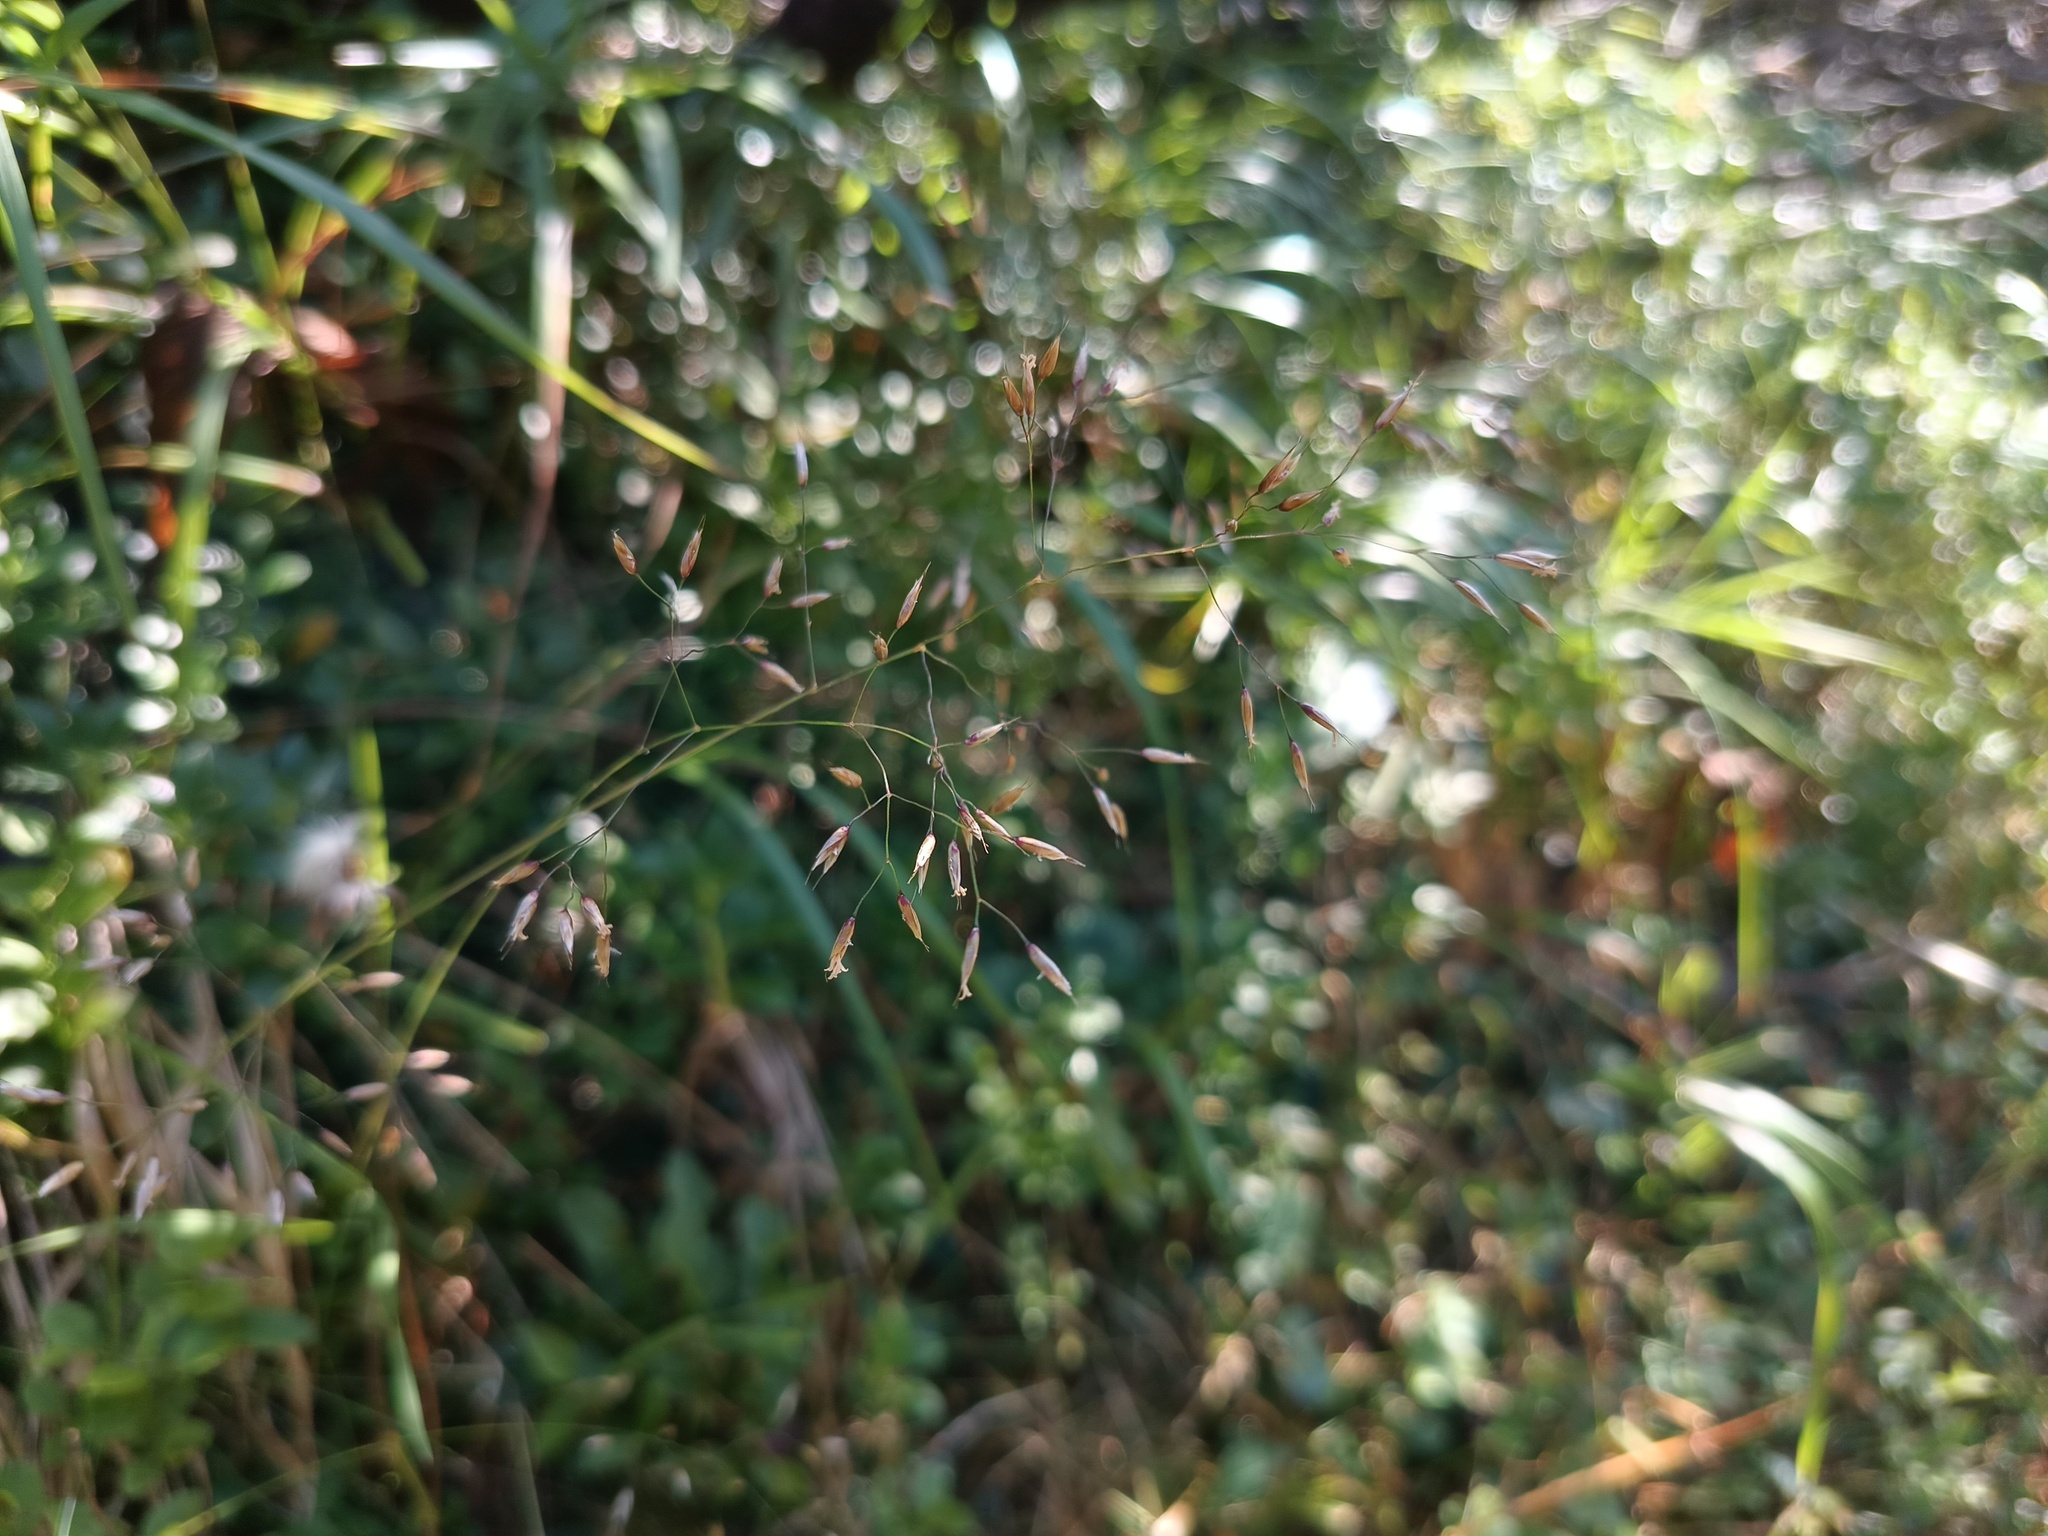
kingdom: Plantae
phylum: Tracheophyta
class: Liliopsida
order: Poales
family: Poaceae
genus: Avenella
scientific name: Avenella flexuosa
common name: Wavy hairgrass
